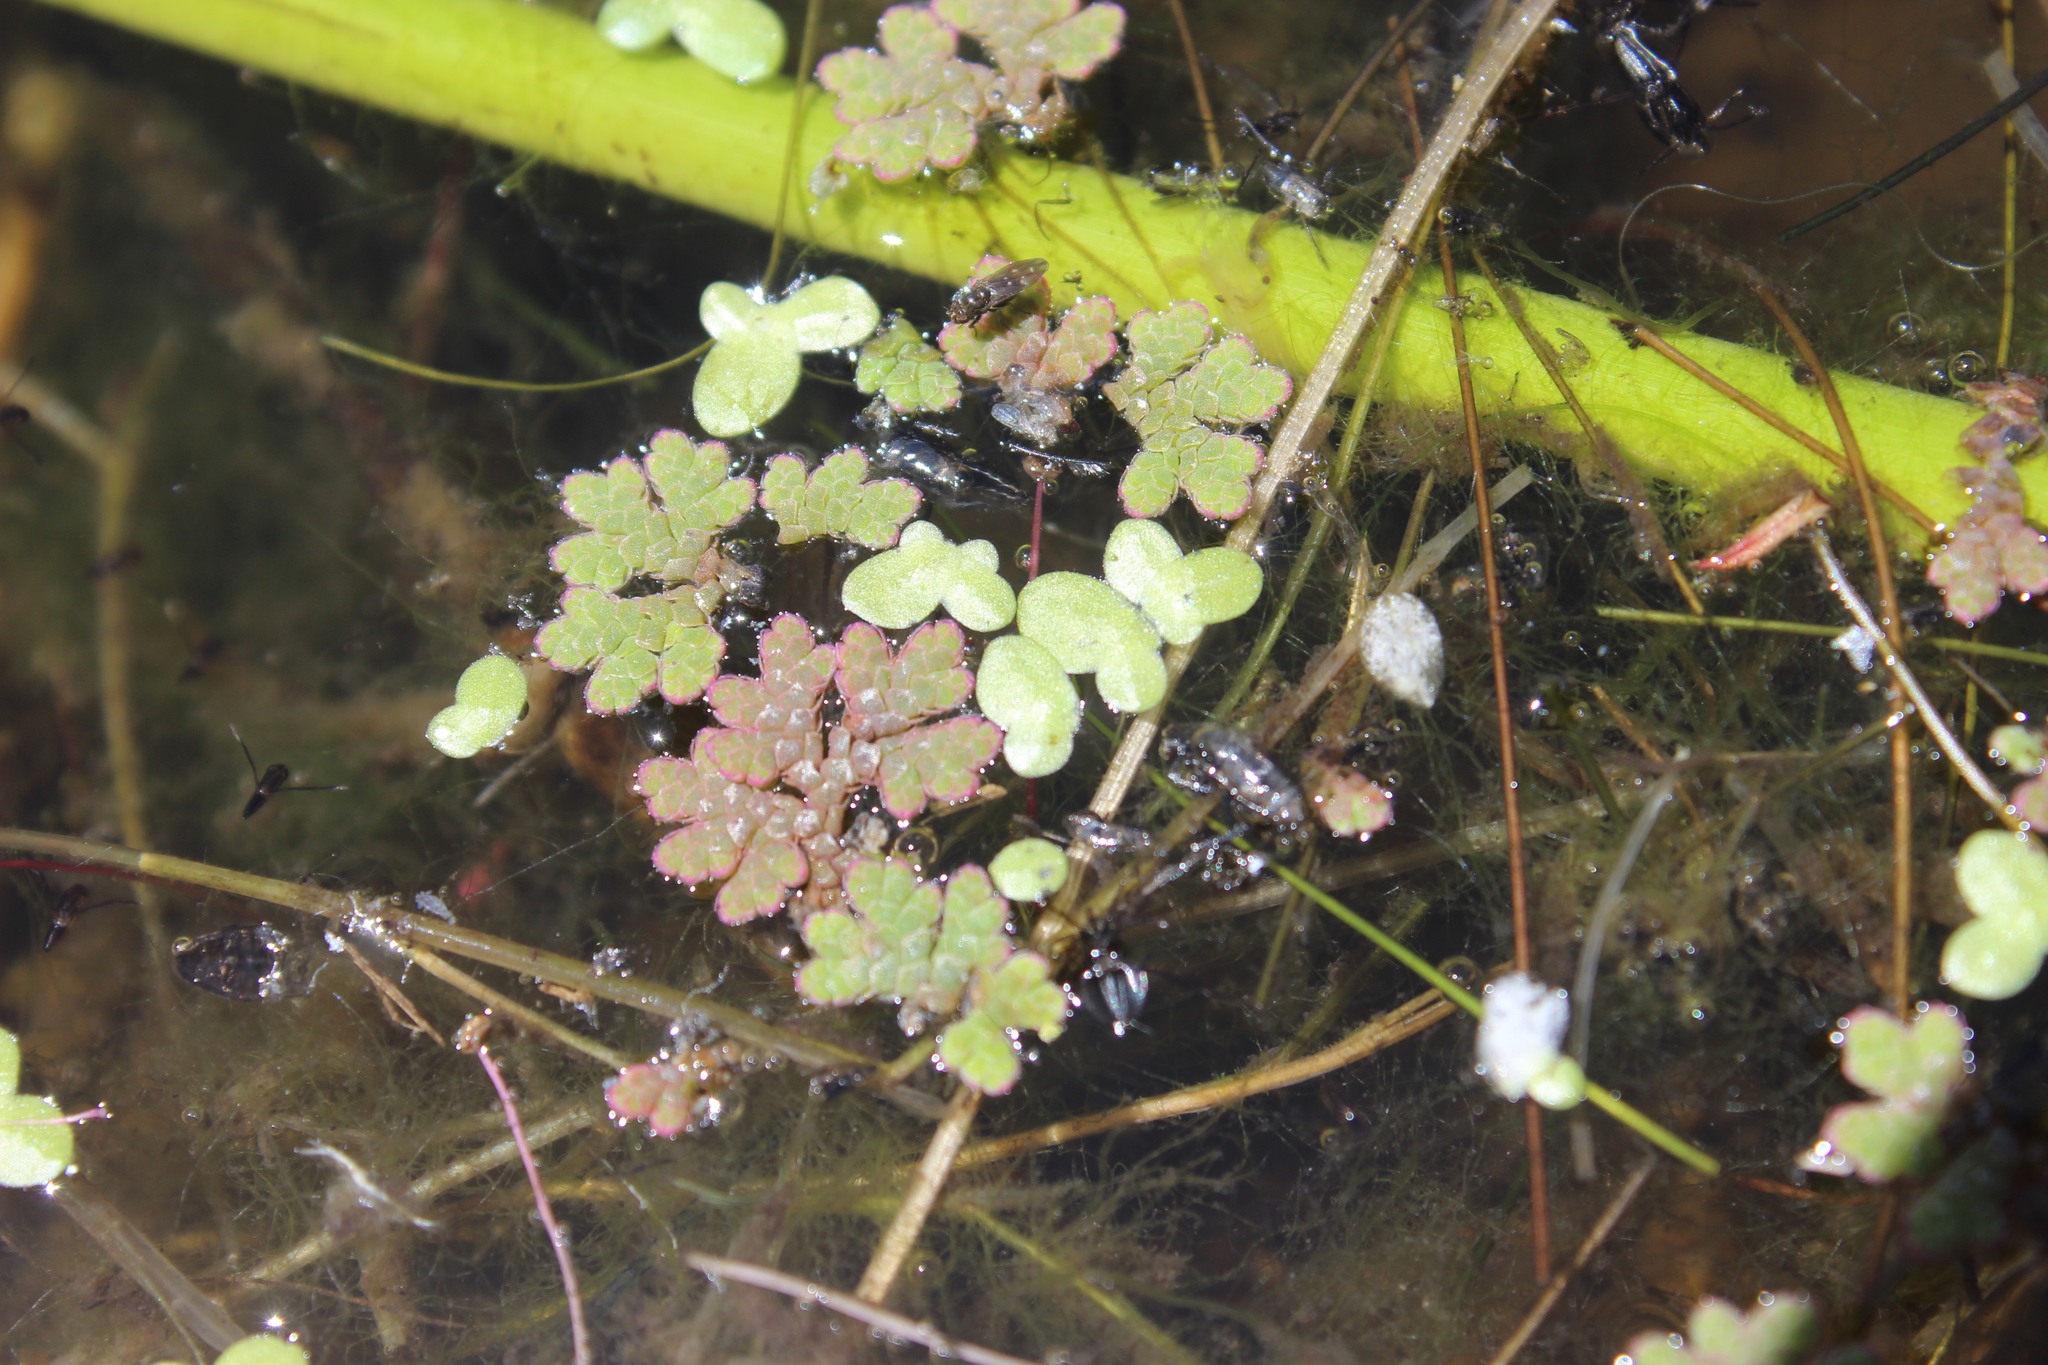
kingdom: Plantae
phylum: Tracheophyta
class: Polypodiopsida
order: Salviniales
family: Salviniaceae
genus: Azolla
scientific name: Azolla rubra
